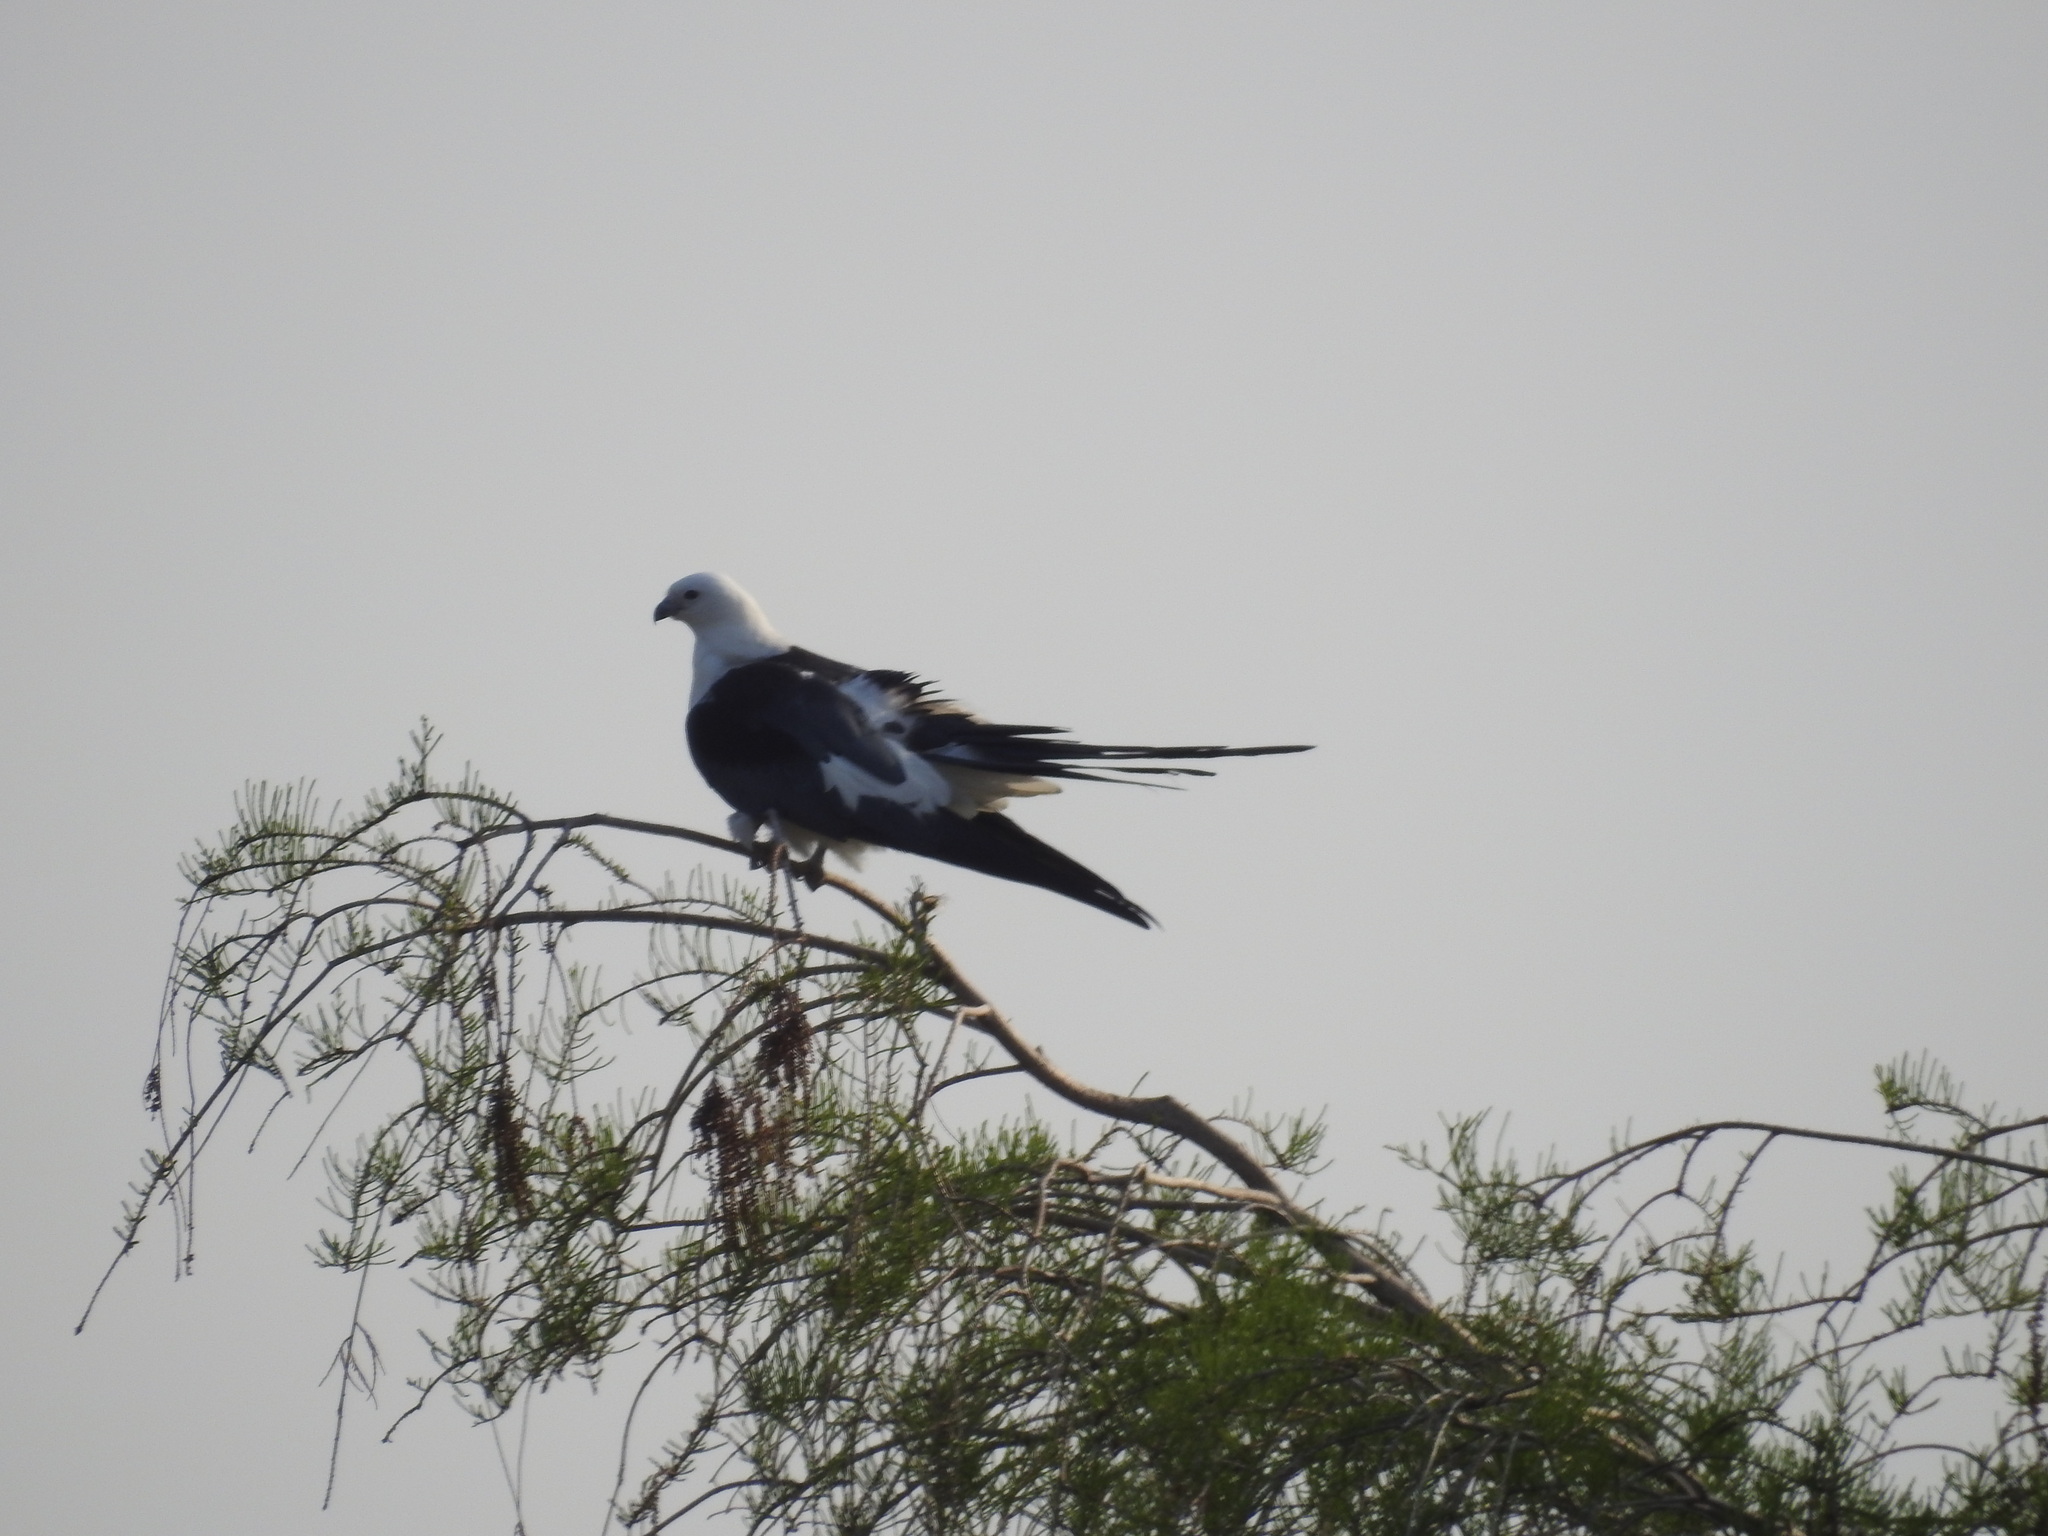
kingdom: Animalia
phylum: Chordata
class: Aves
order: Accipitriformes
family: Accipitridae
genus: Elanoides
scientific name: Elanoides forficatus
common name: Swallow-tailed kite
